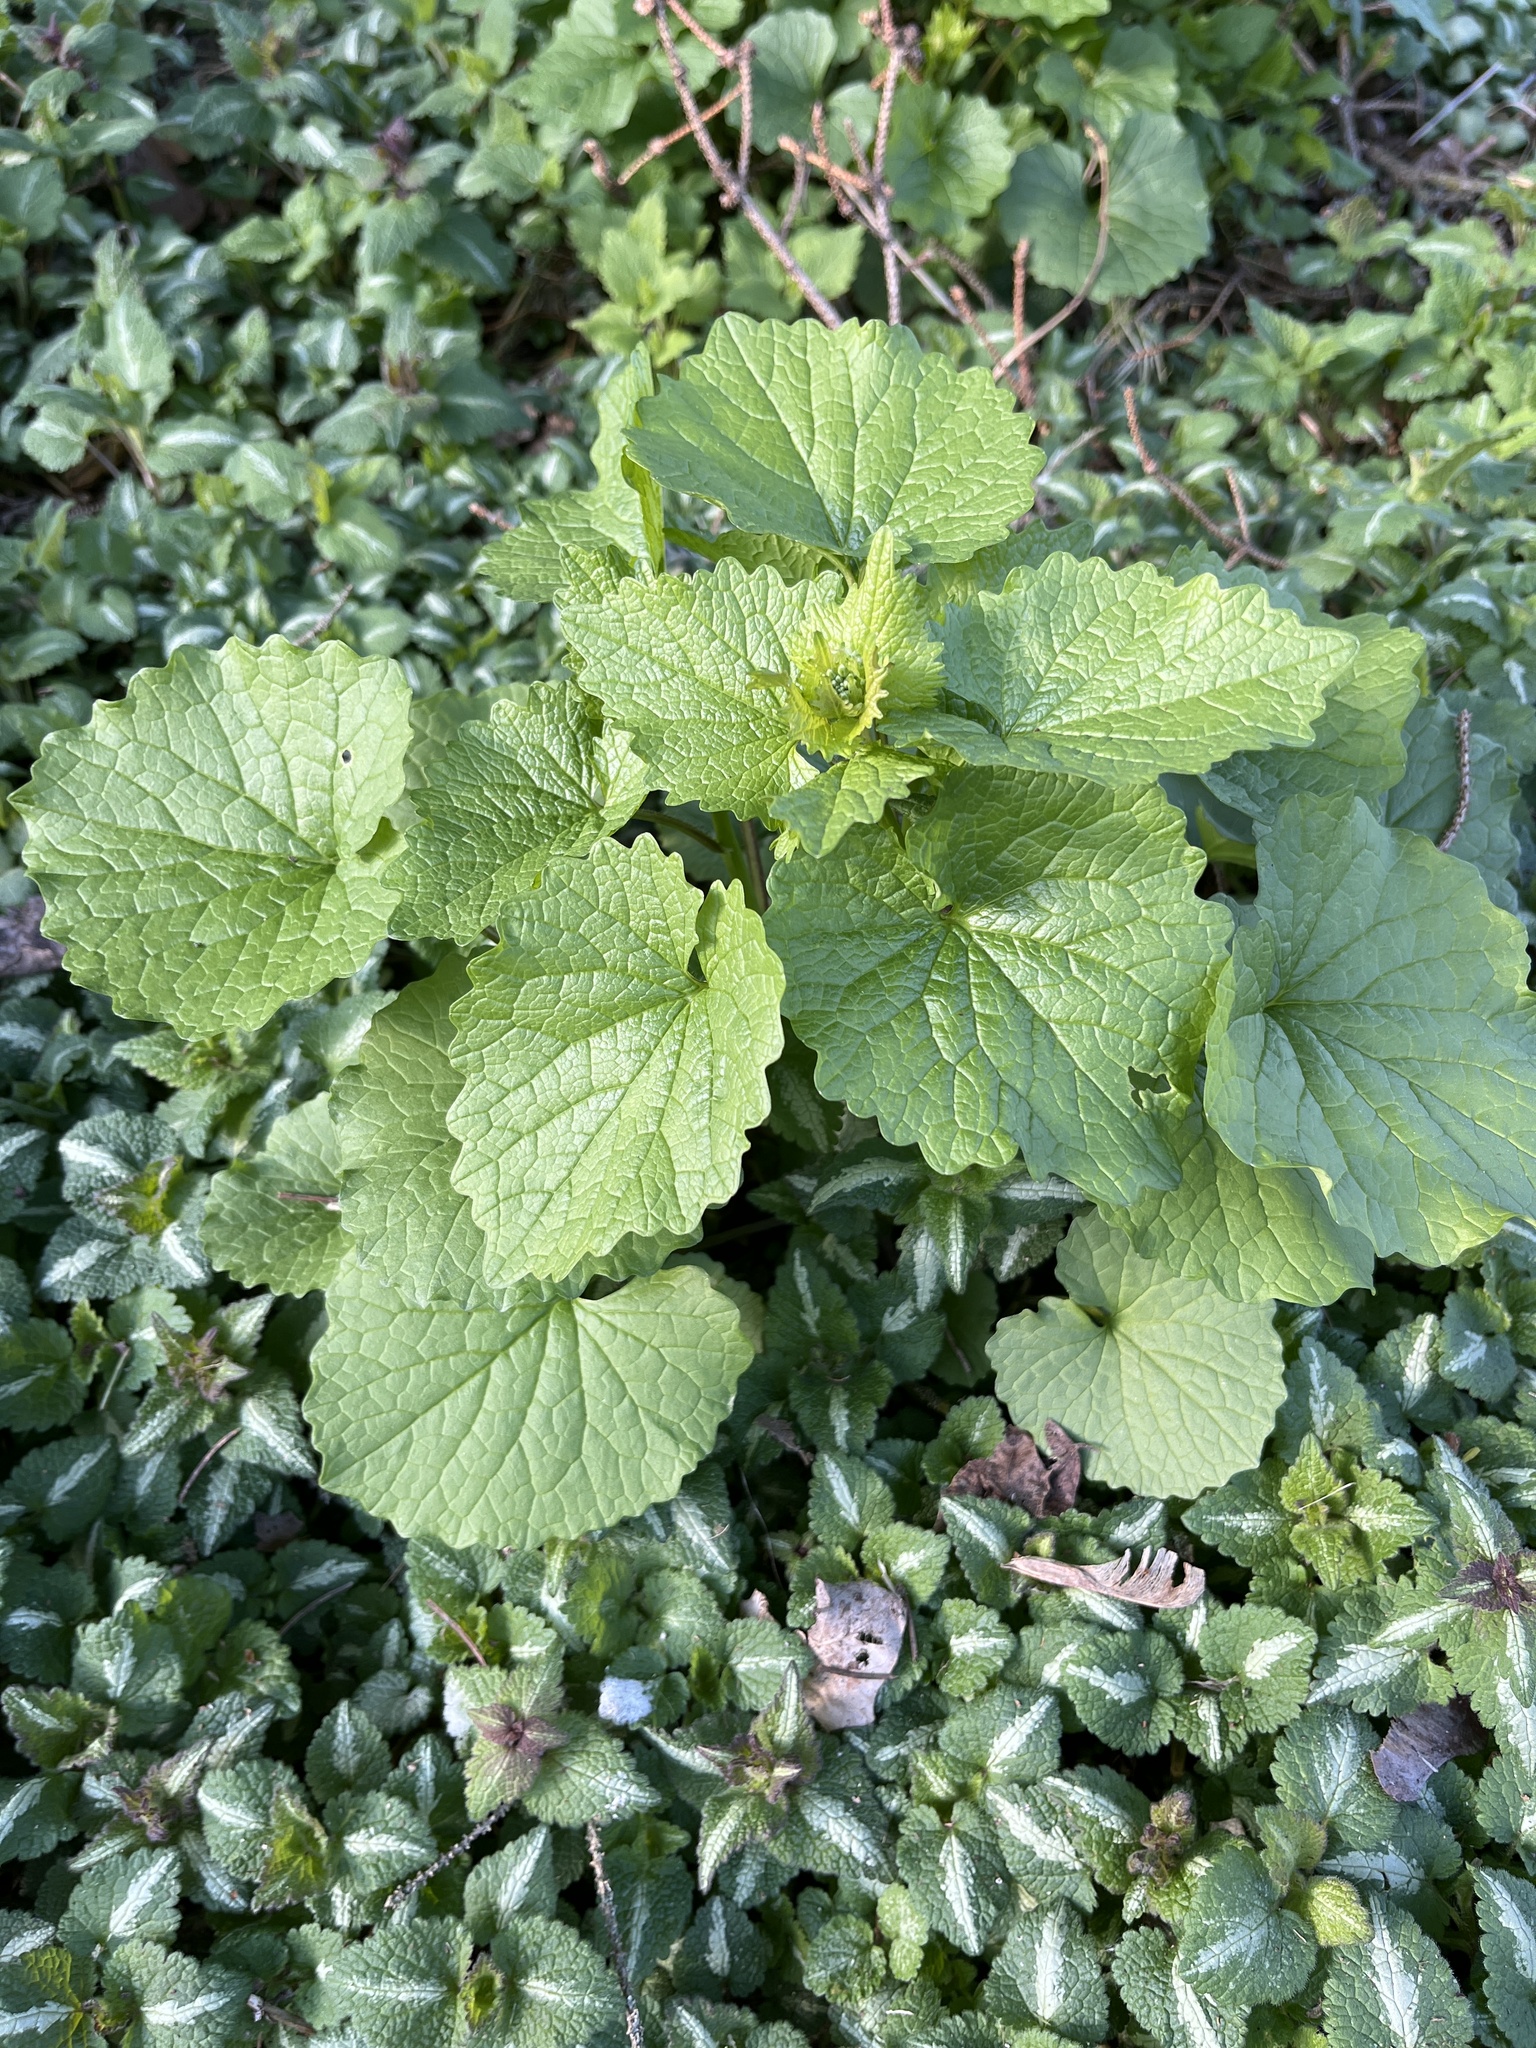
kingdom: Plantae
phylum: Tracheophyta
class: Magnoliopsida
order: Brassicales
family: Brassicaceae
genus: Alliaria
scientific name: Alliaria petiolata
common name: Garlic mustard
